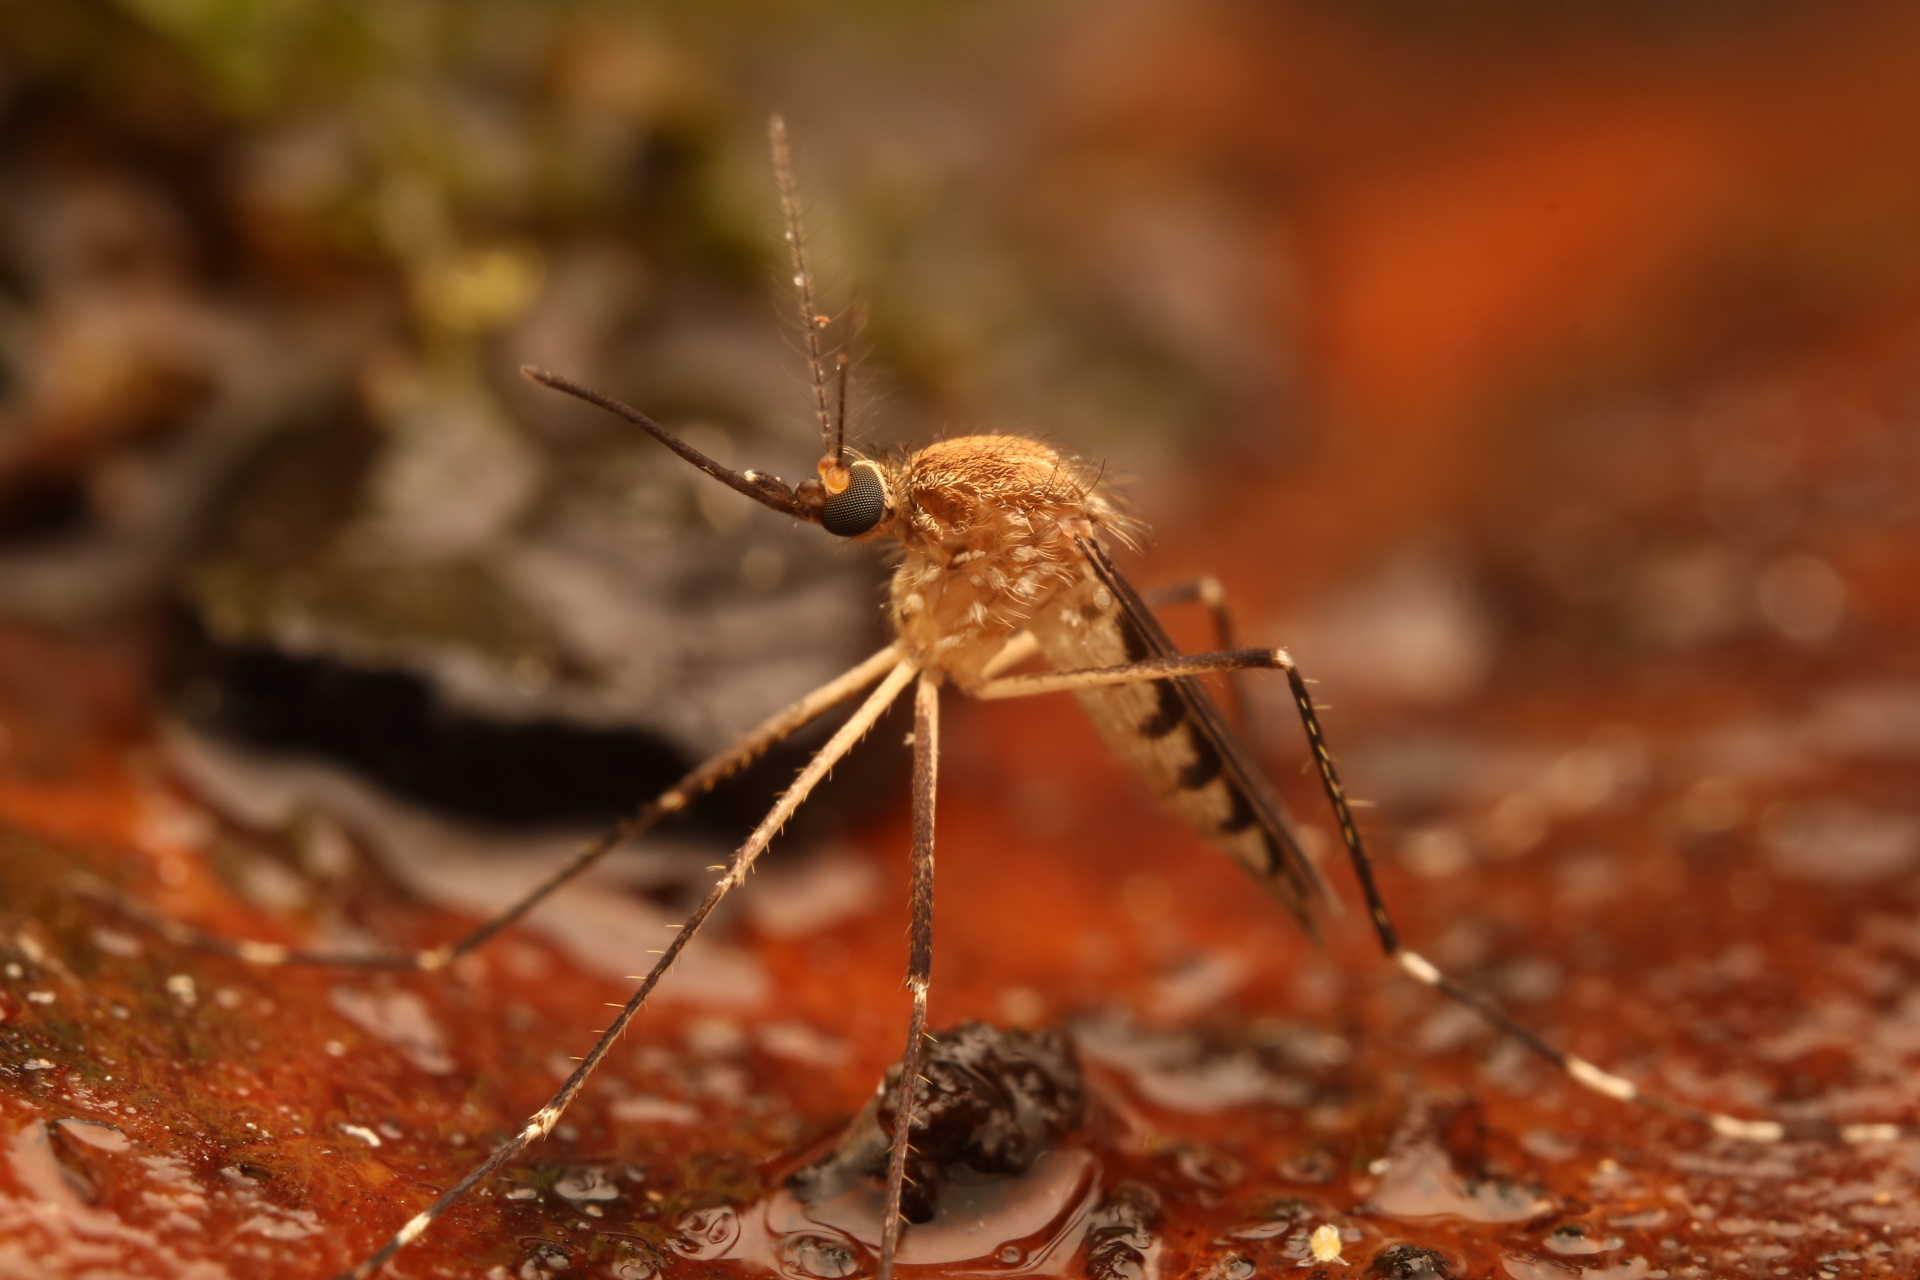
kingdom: Animalia
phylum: Arthropoda
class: Insecta
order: Diptera
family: Culicidae
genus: Aedes
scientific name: Aedes canadensis
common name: Woodland pool mosquito
